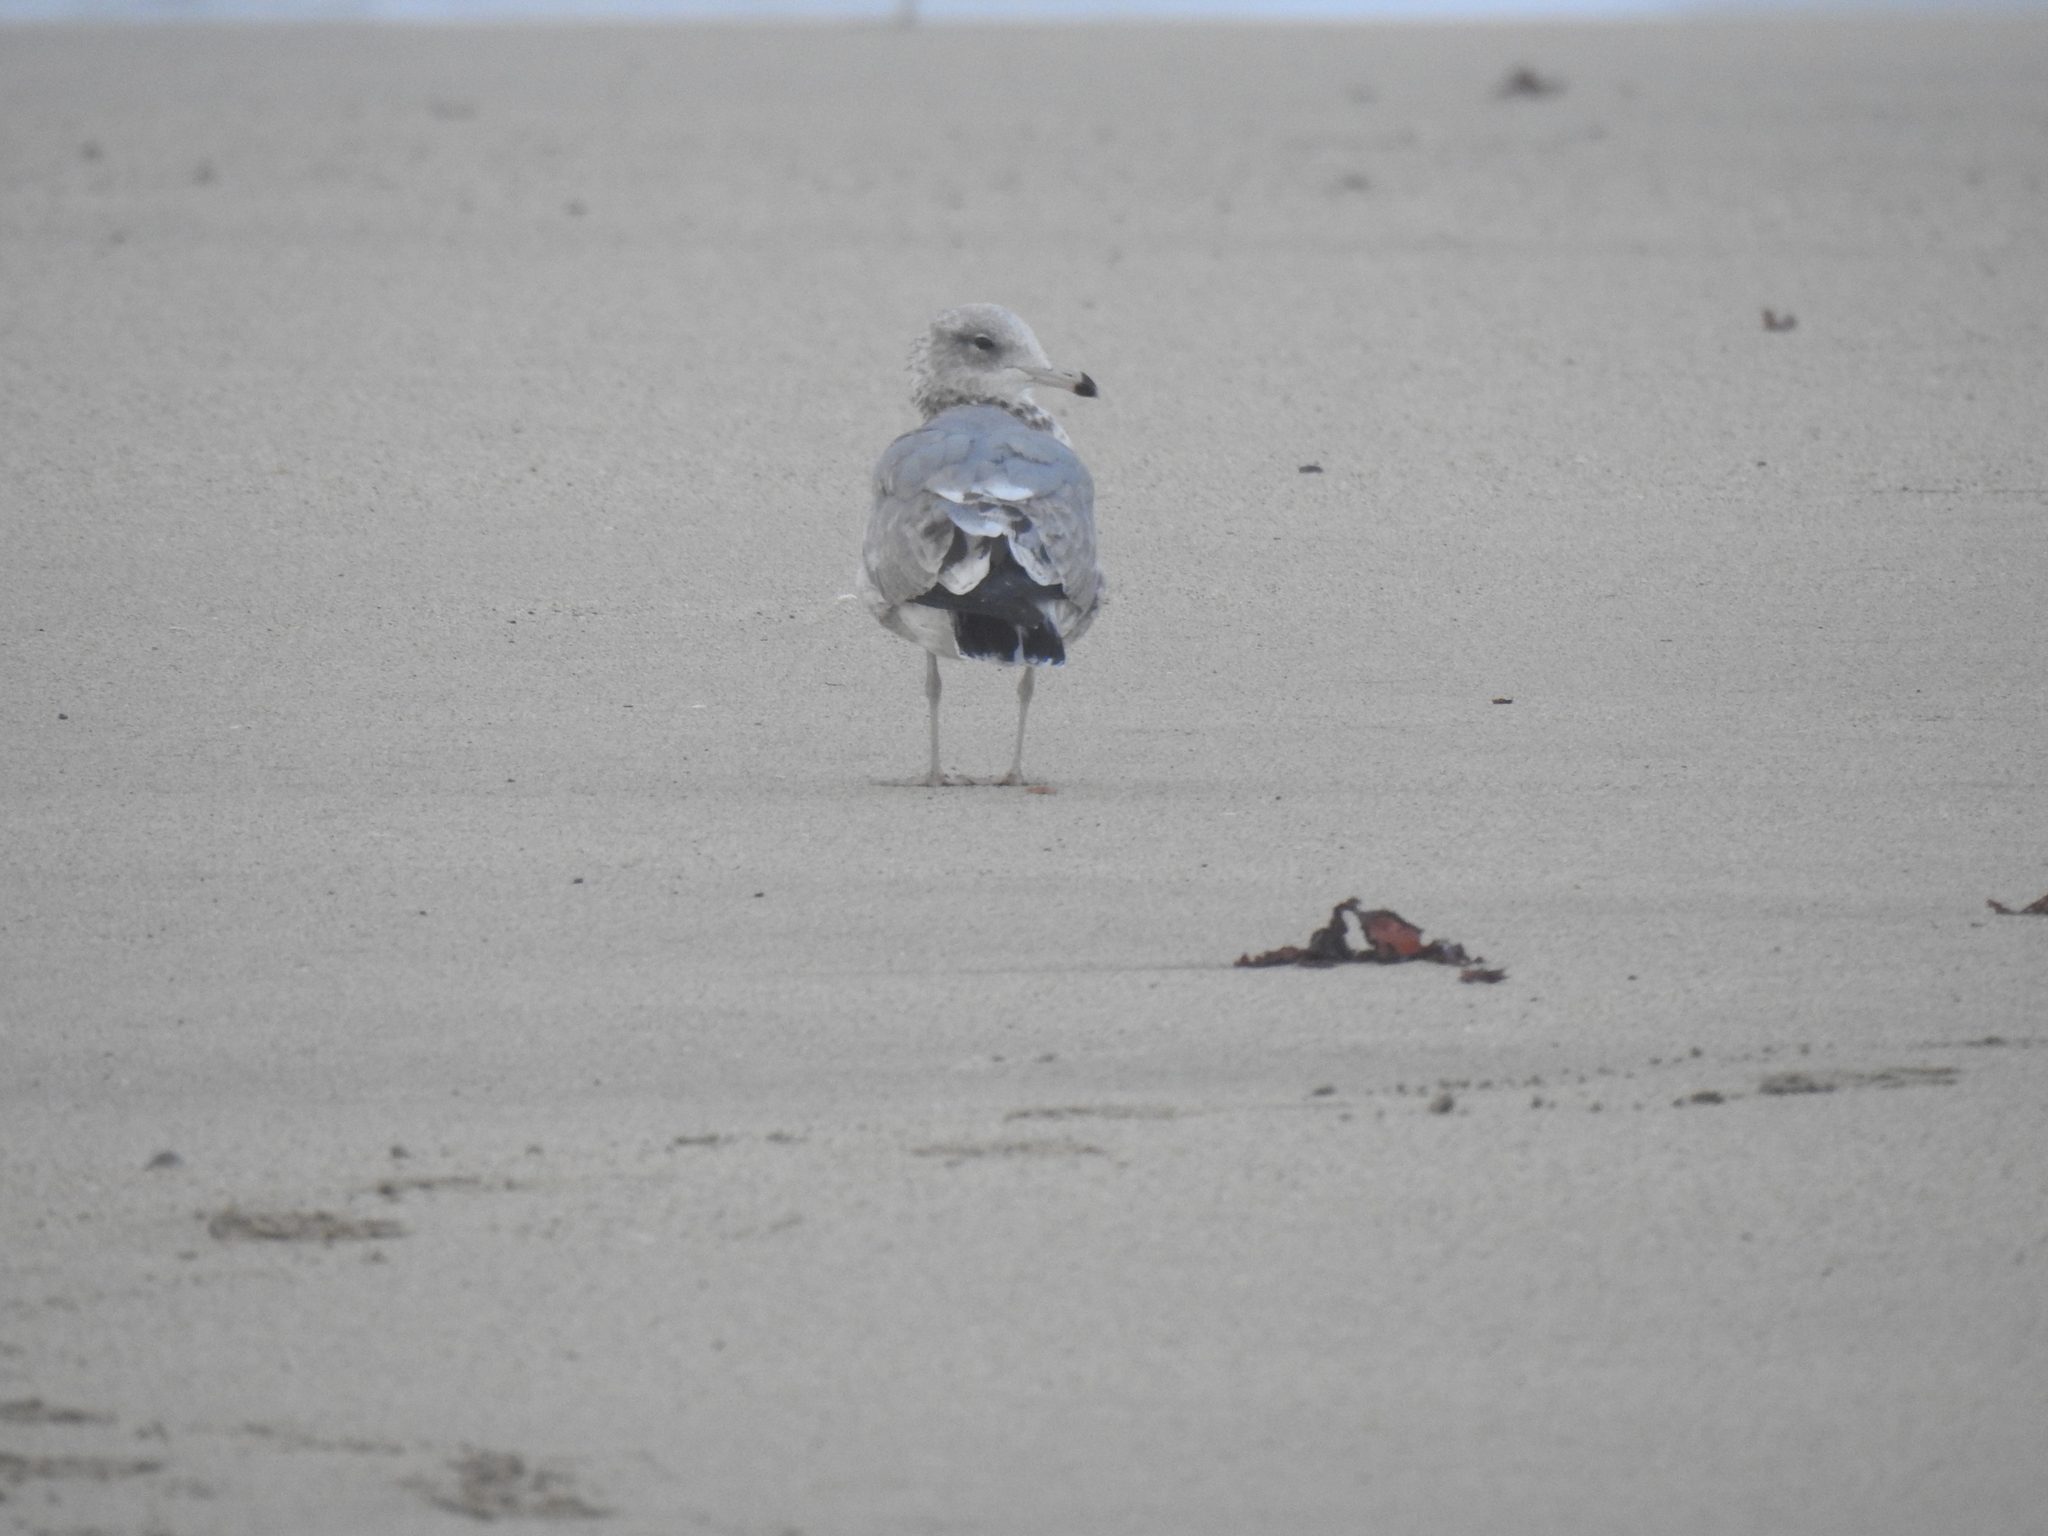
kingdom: Animalia
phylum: Chordata
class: Aves
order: Charadriiformes
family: Laridae
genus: Larus
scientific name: Larus californicus
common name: California gull
